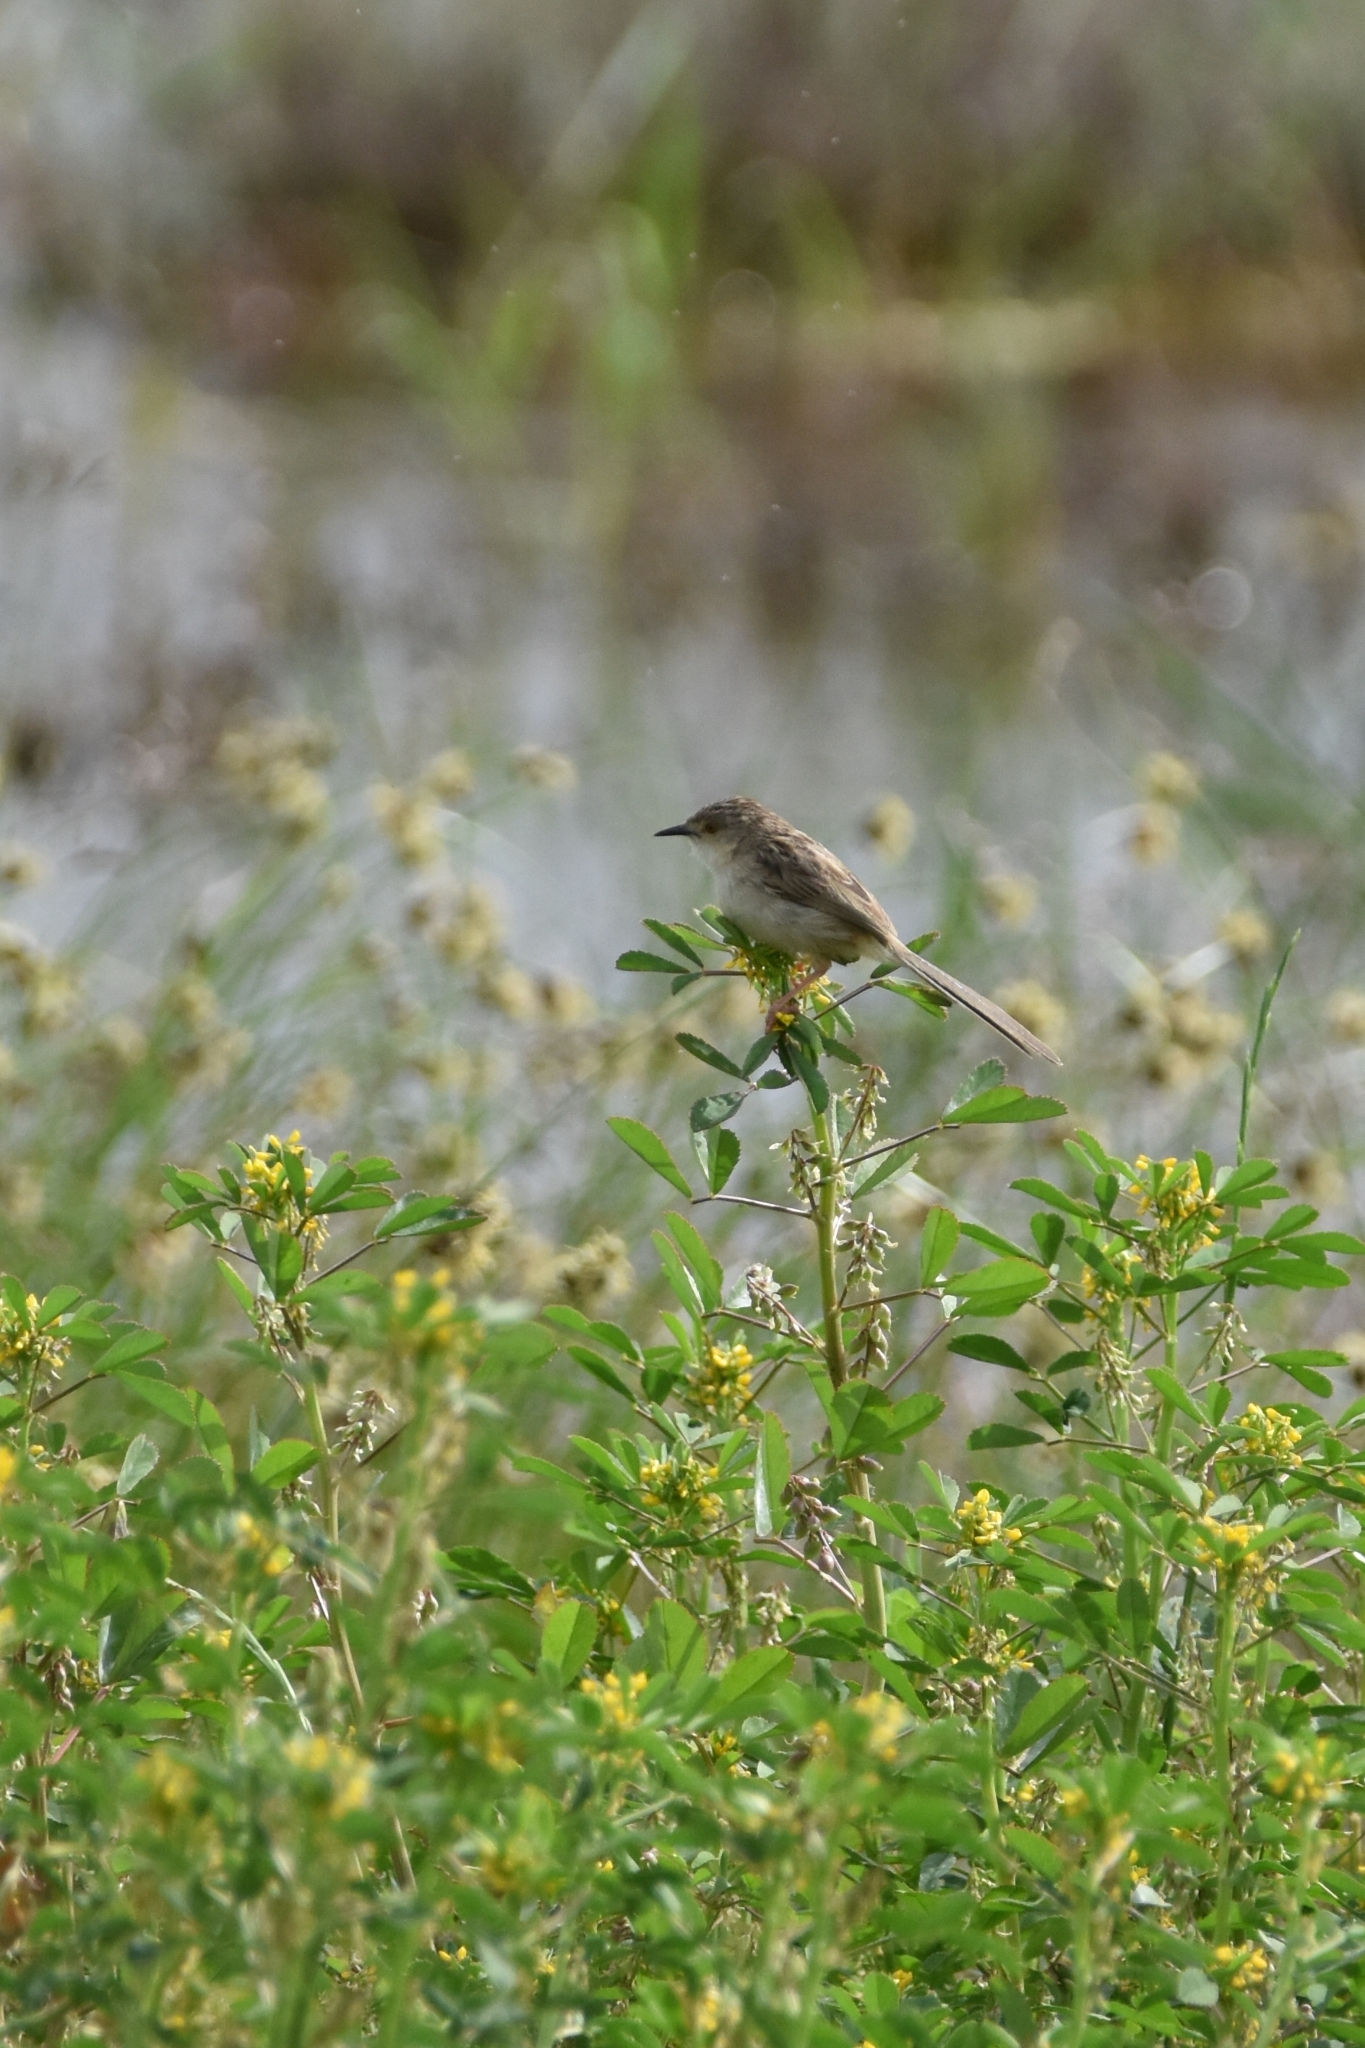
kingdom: Animalia
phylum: Chordata
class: Aves
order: Passeriformes
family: Cisticolidae
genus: Prinia
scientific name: Prinia lepida
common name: Delicate prinia
